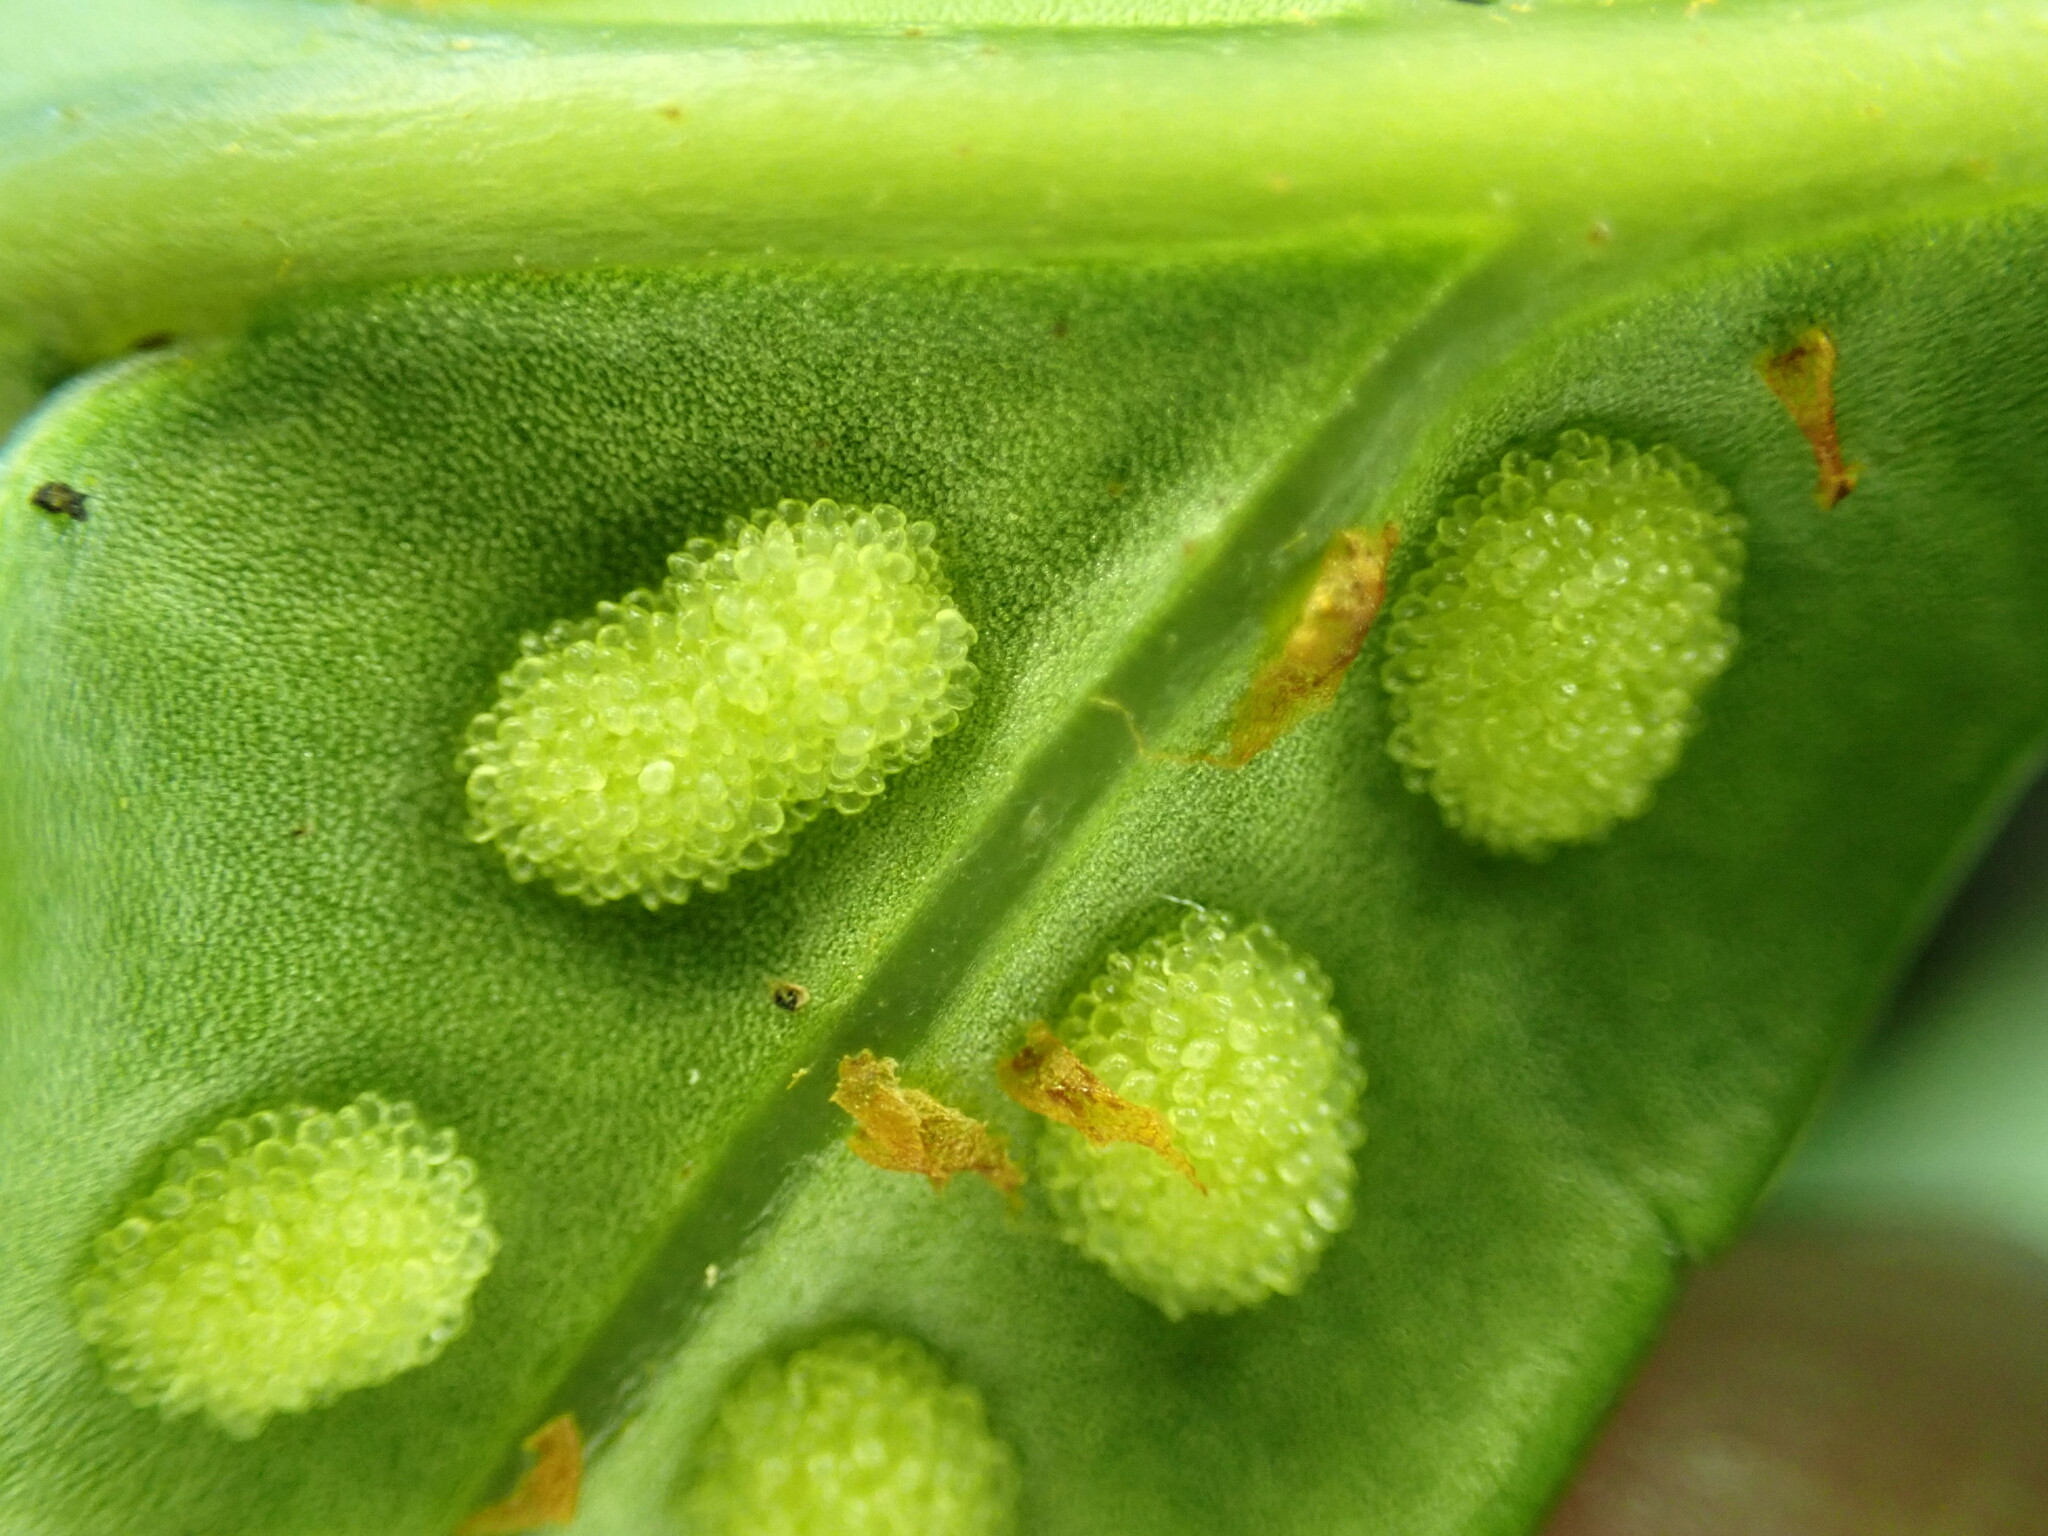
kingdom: Plantae
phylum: Tracheophyta
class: Polypodiopsida
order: Polypodiales
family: Polypodiaceae
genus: Polypodium
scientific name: Polypodium scouleri
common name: Scouler's polypody
